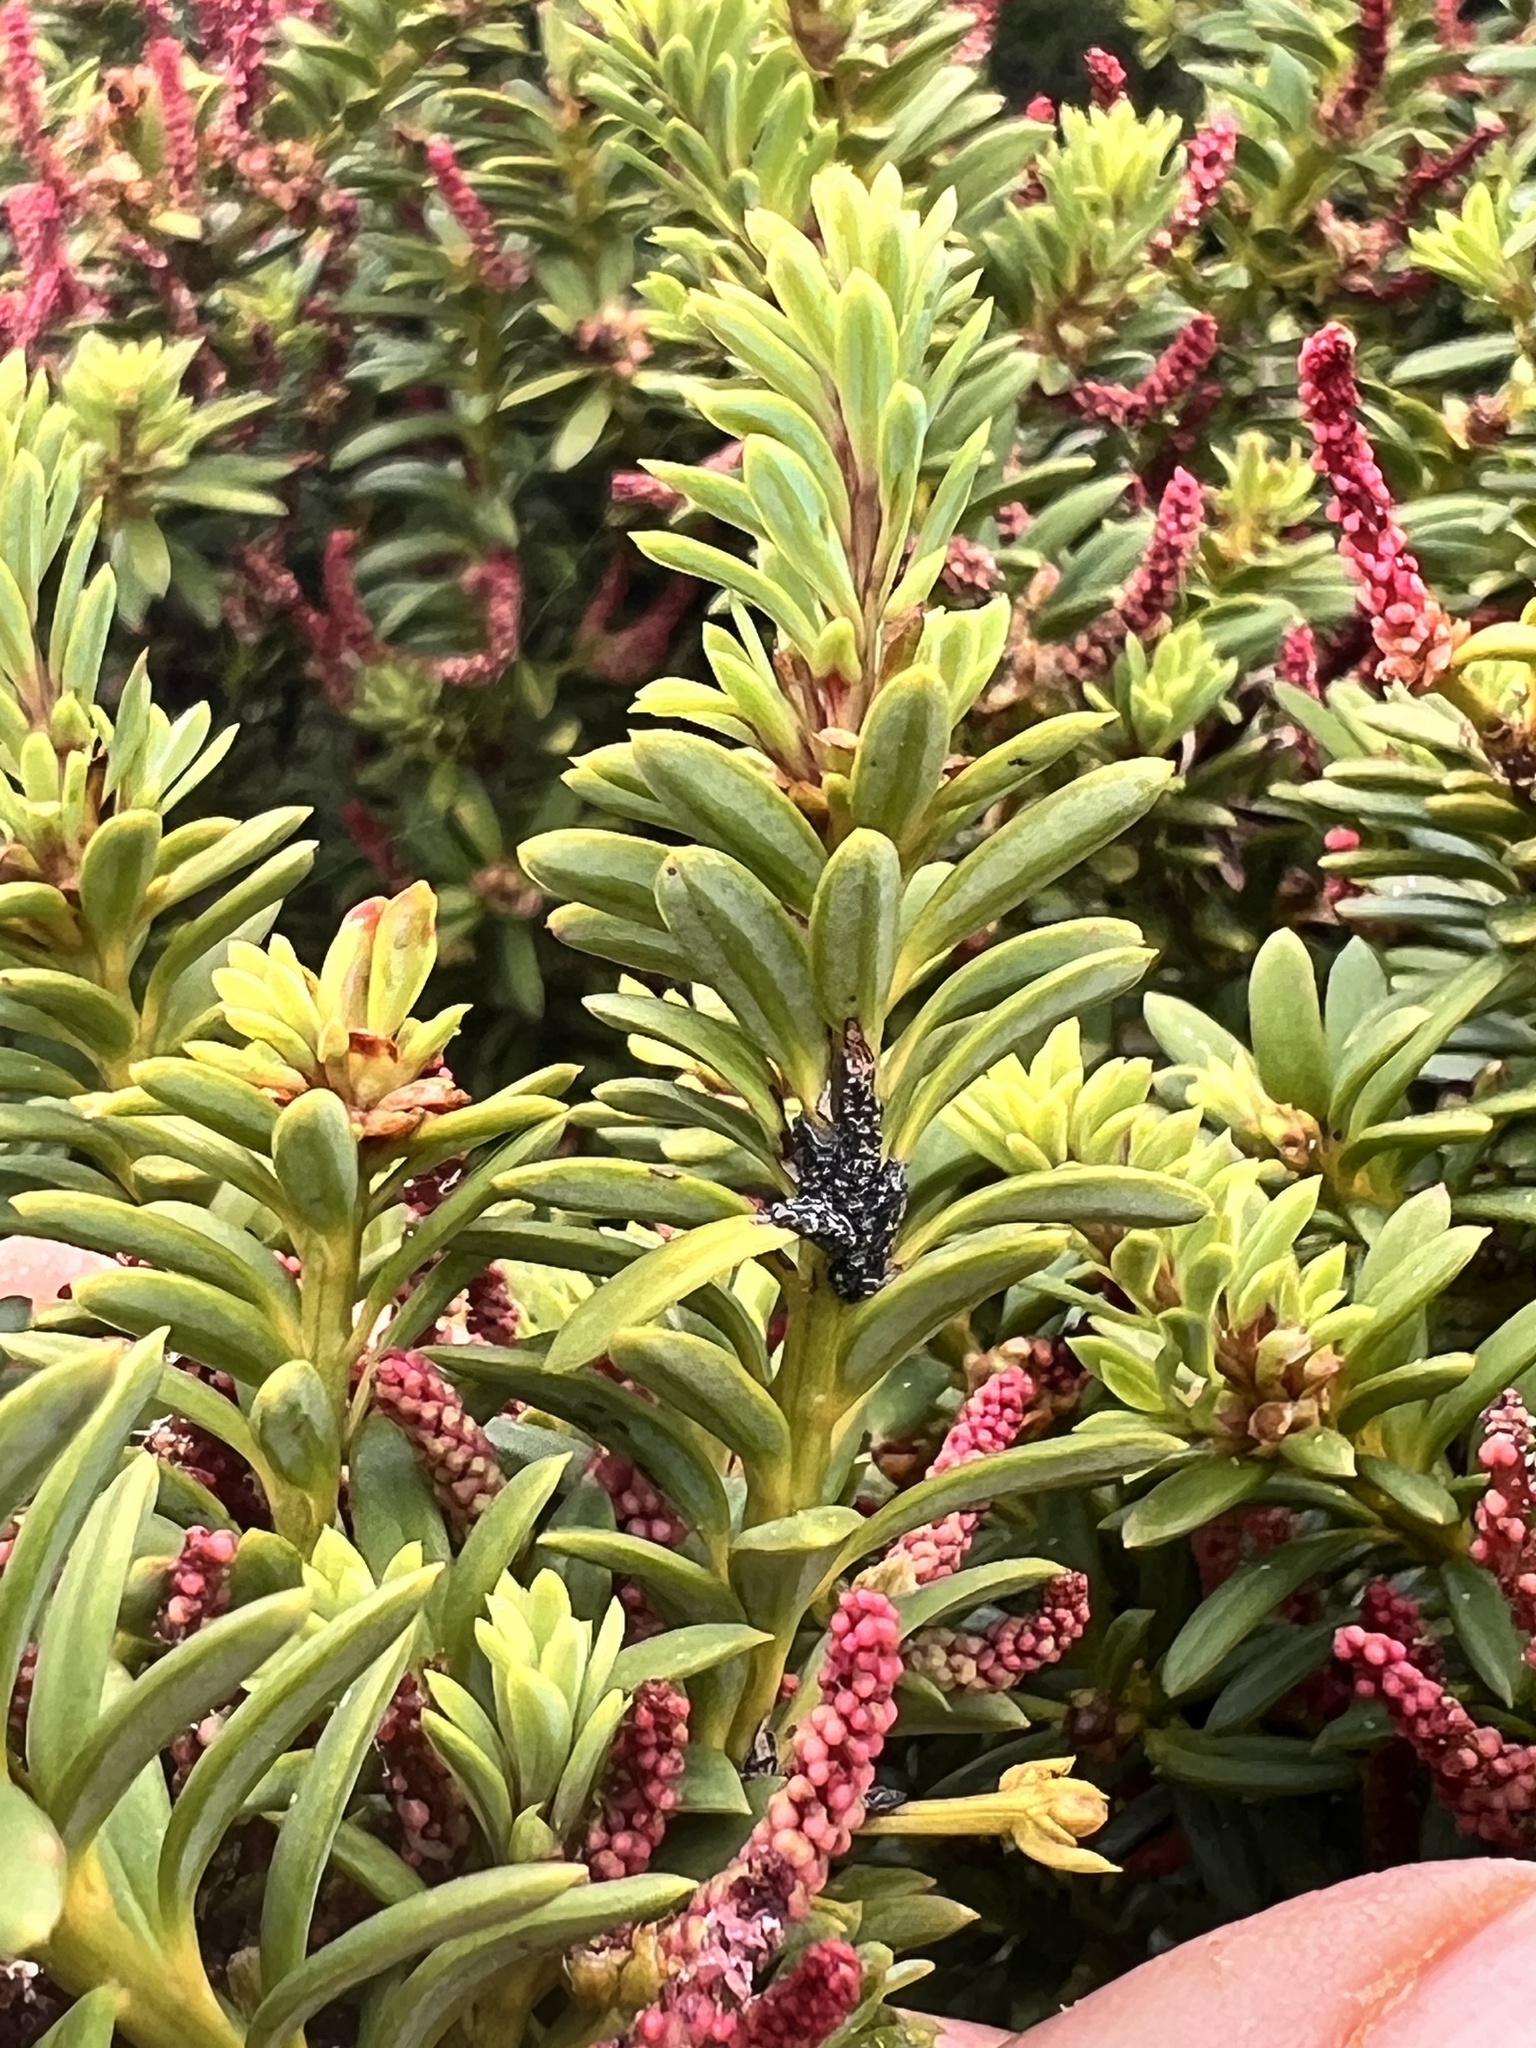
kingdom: Plantae
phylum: Tracheophyta
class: Pinopsida
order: Pinales
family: Podocarpaceae
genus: Podocarpus
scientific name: Podocarpus nivalis
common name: Alpine totara
